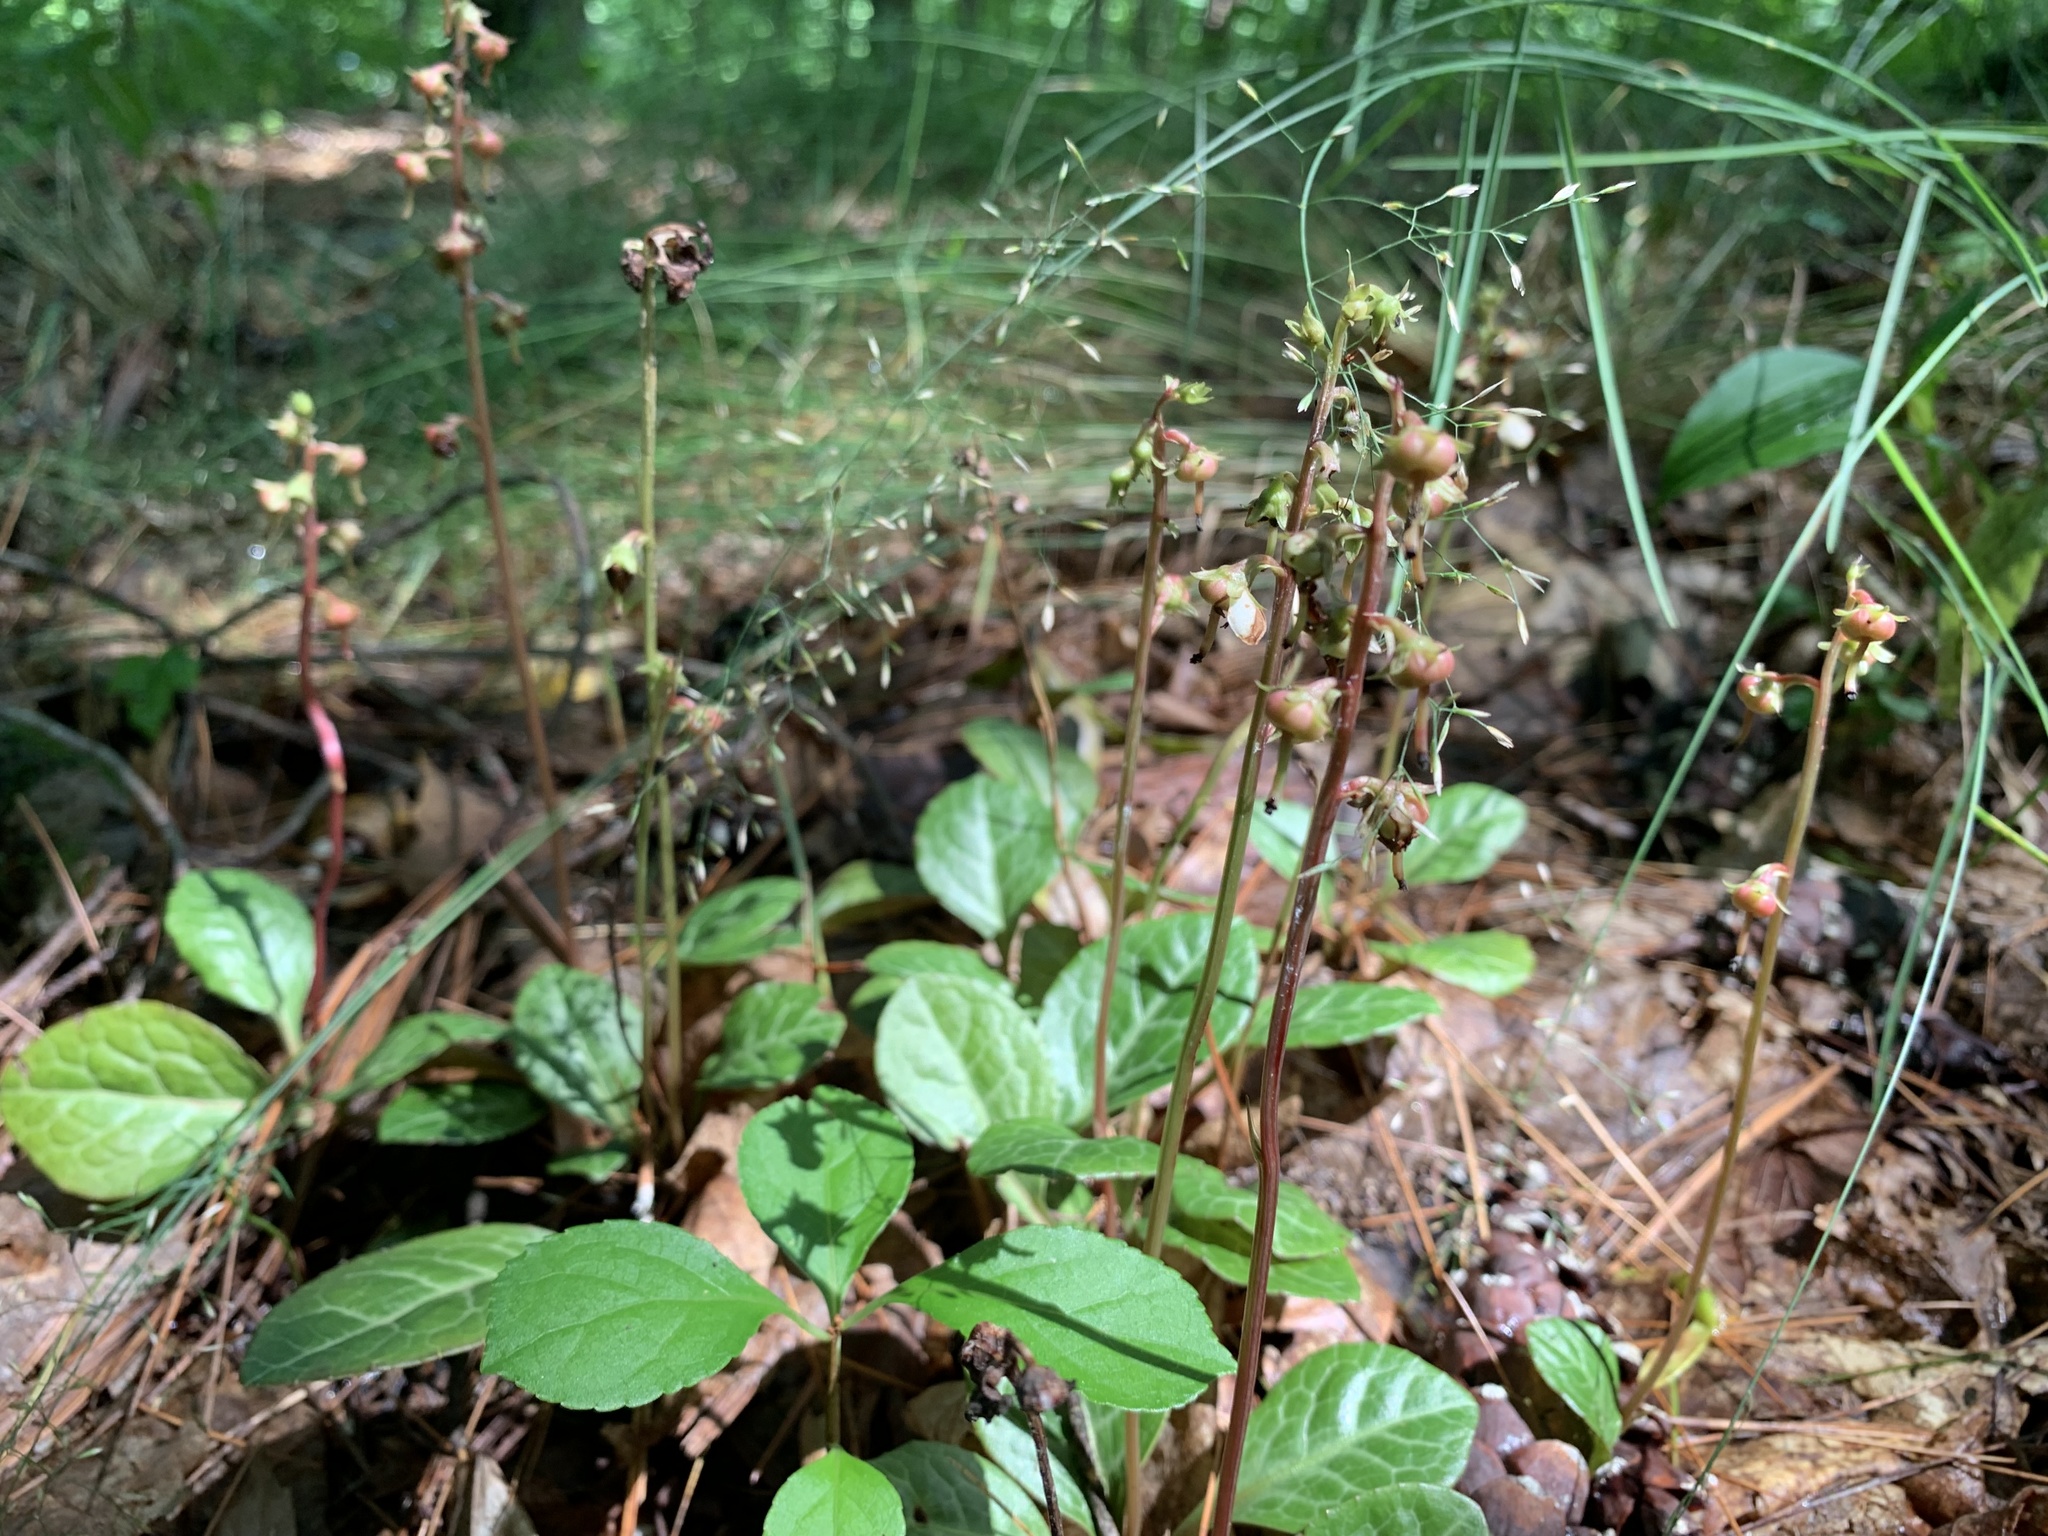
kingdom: Plantae
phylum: Tracheophyta
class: Magnoliopsida
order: Ericales
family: Ericaceae
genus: Pyrola
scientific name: Pyrola americana
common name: American wintergreen
